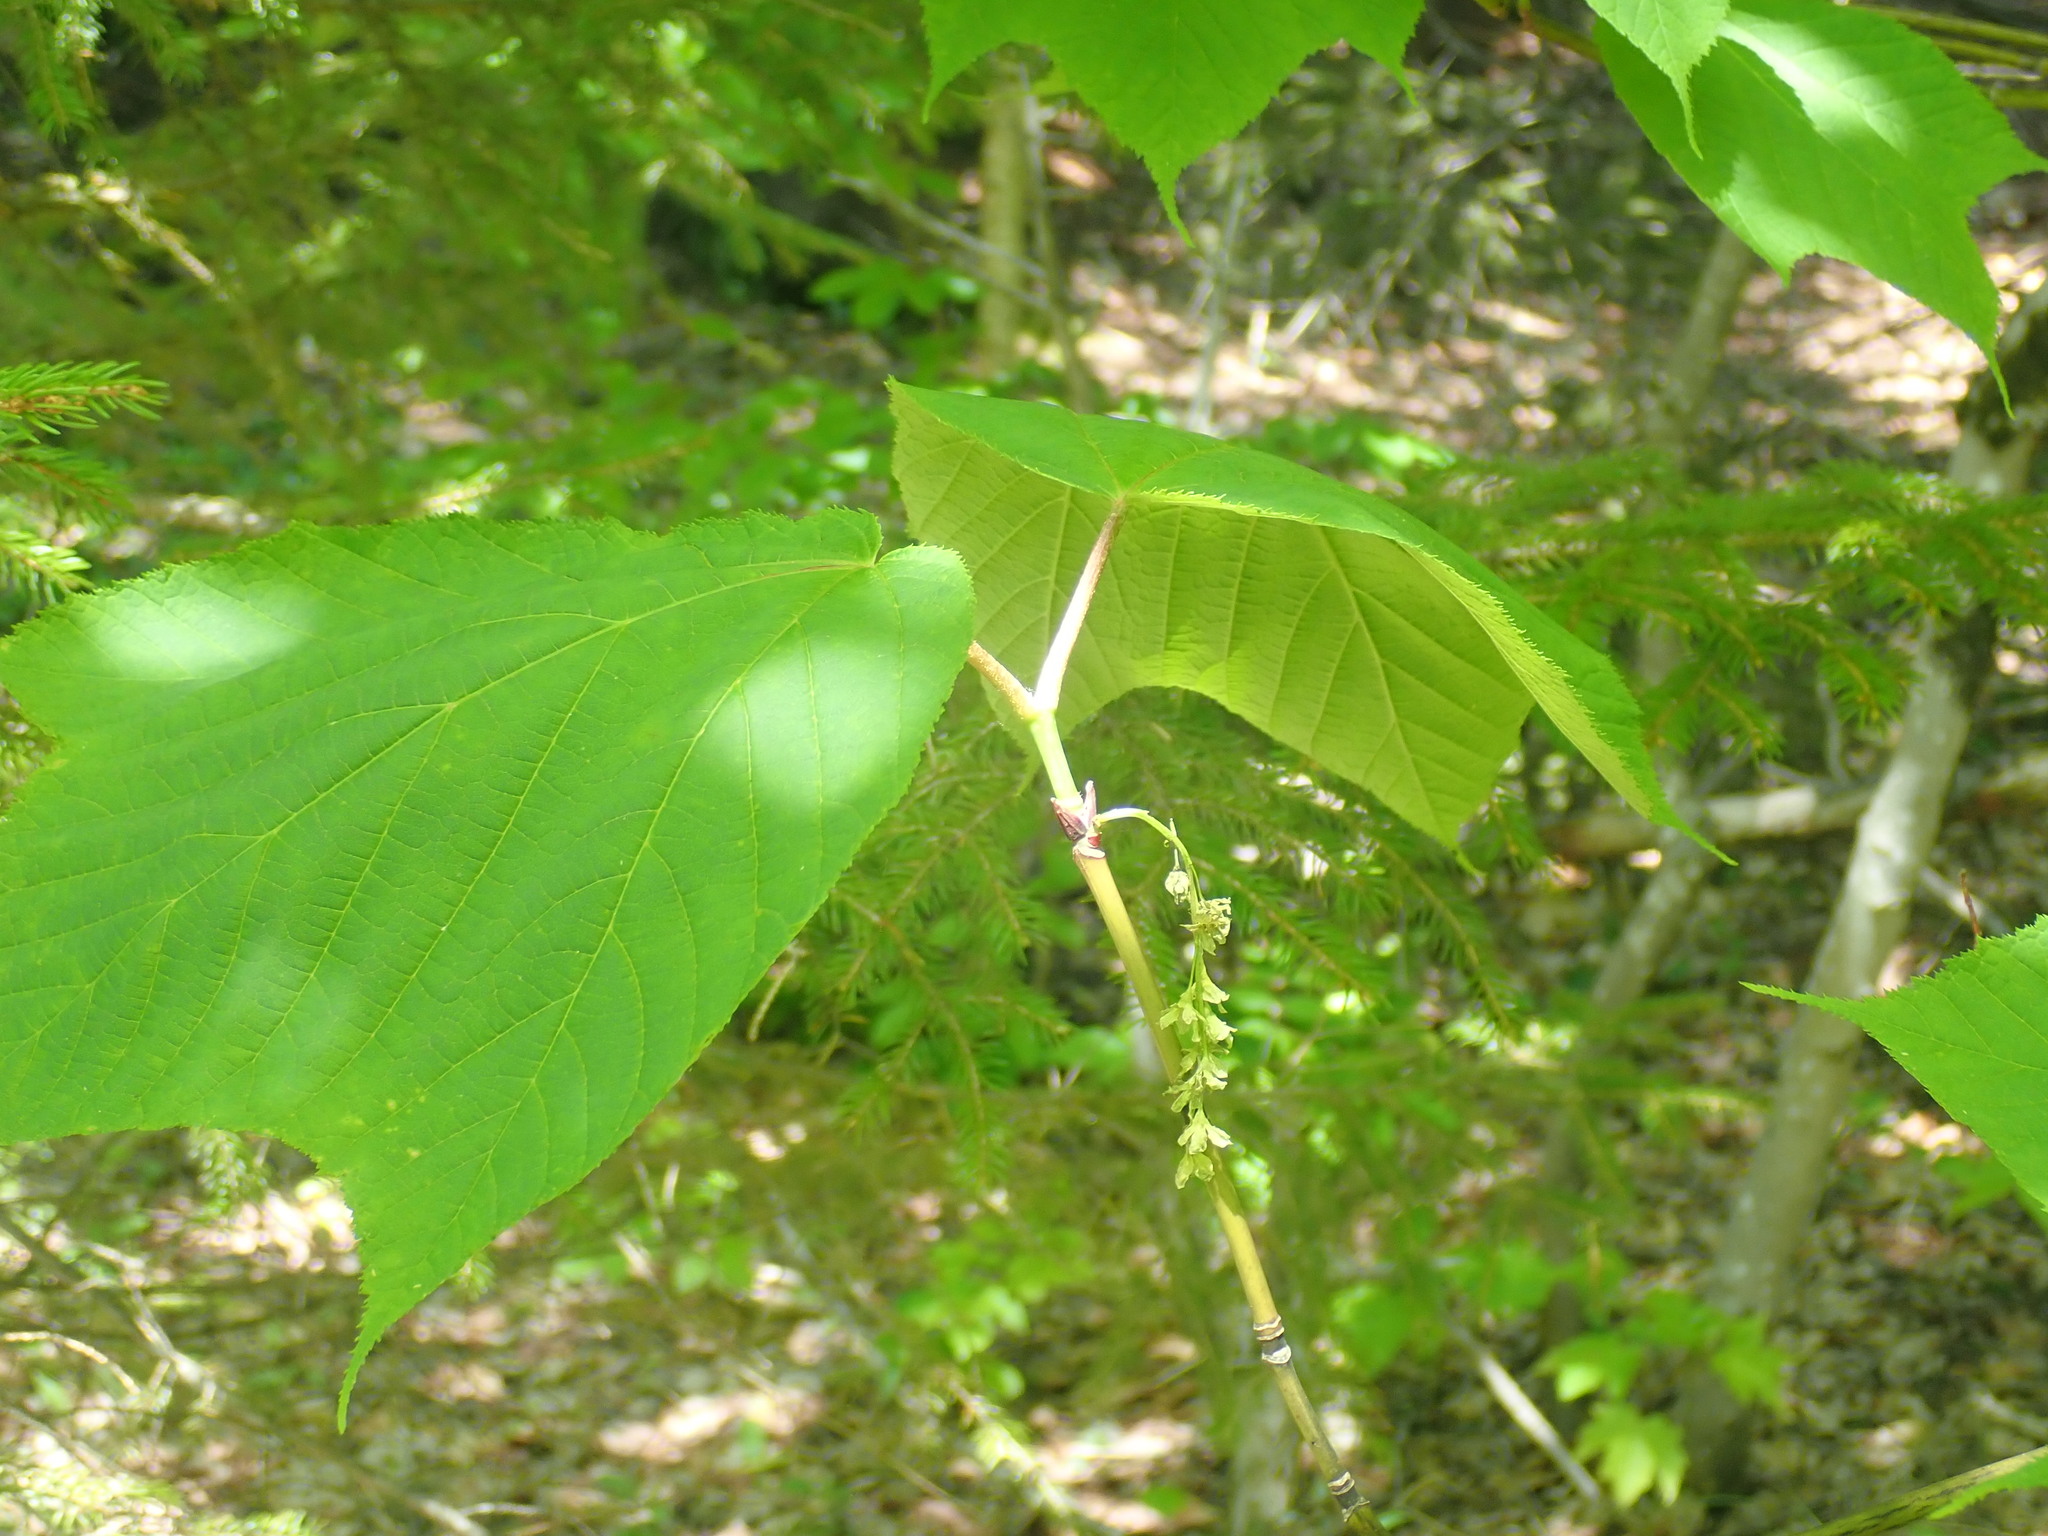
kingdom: Plantae
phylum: Tracheophyta
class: Magnoliopsida
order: Sapindales
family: Sapindaceae
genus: Acer
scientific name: Acer pensylvanicum
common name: Moosewood
